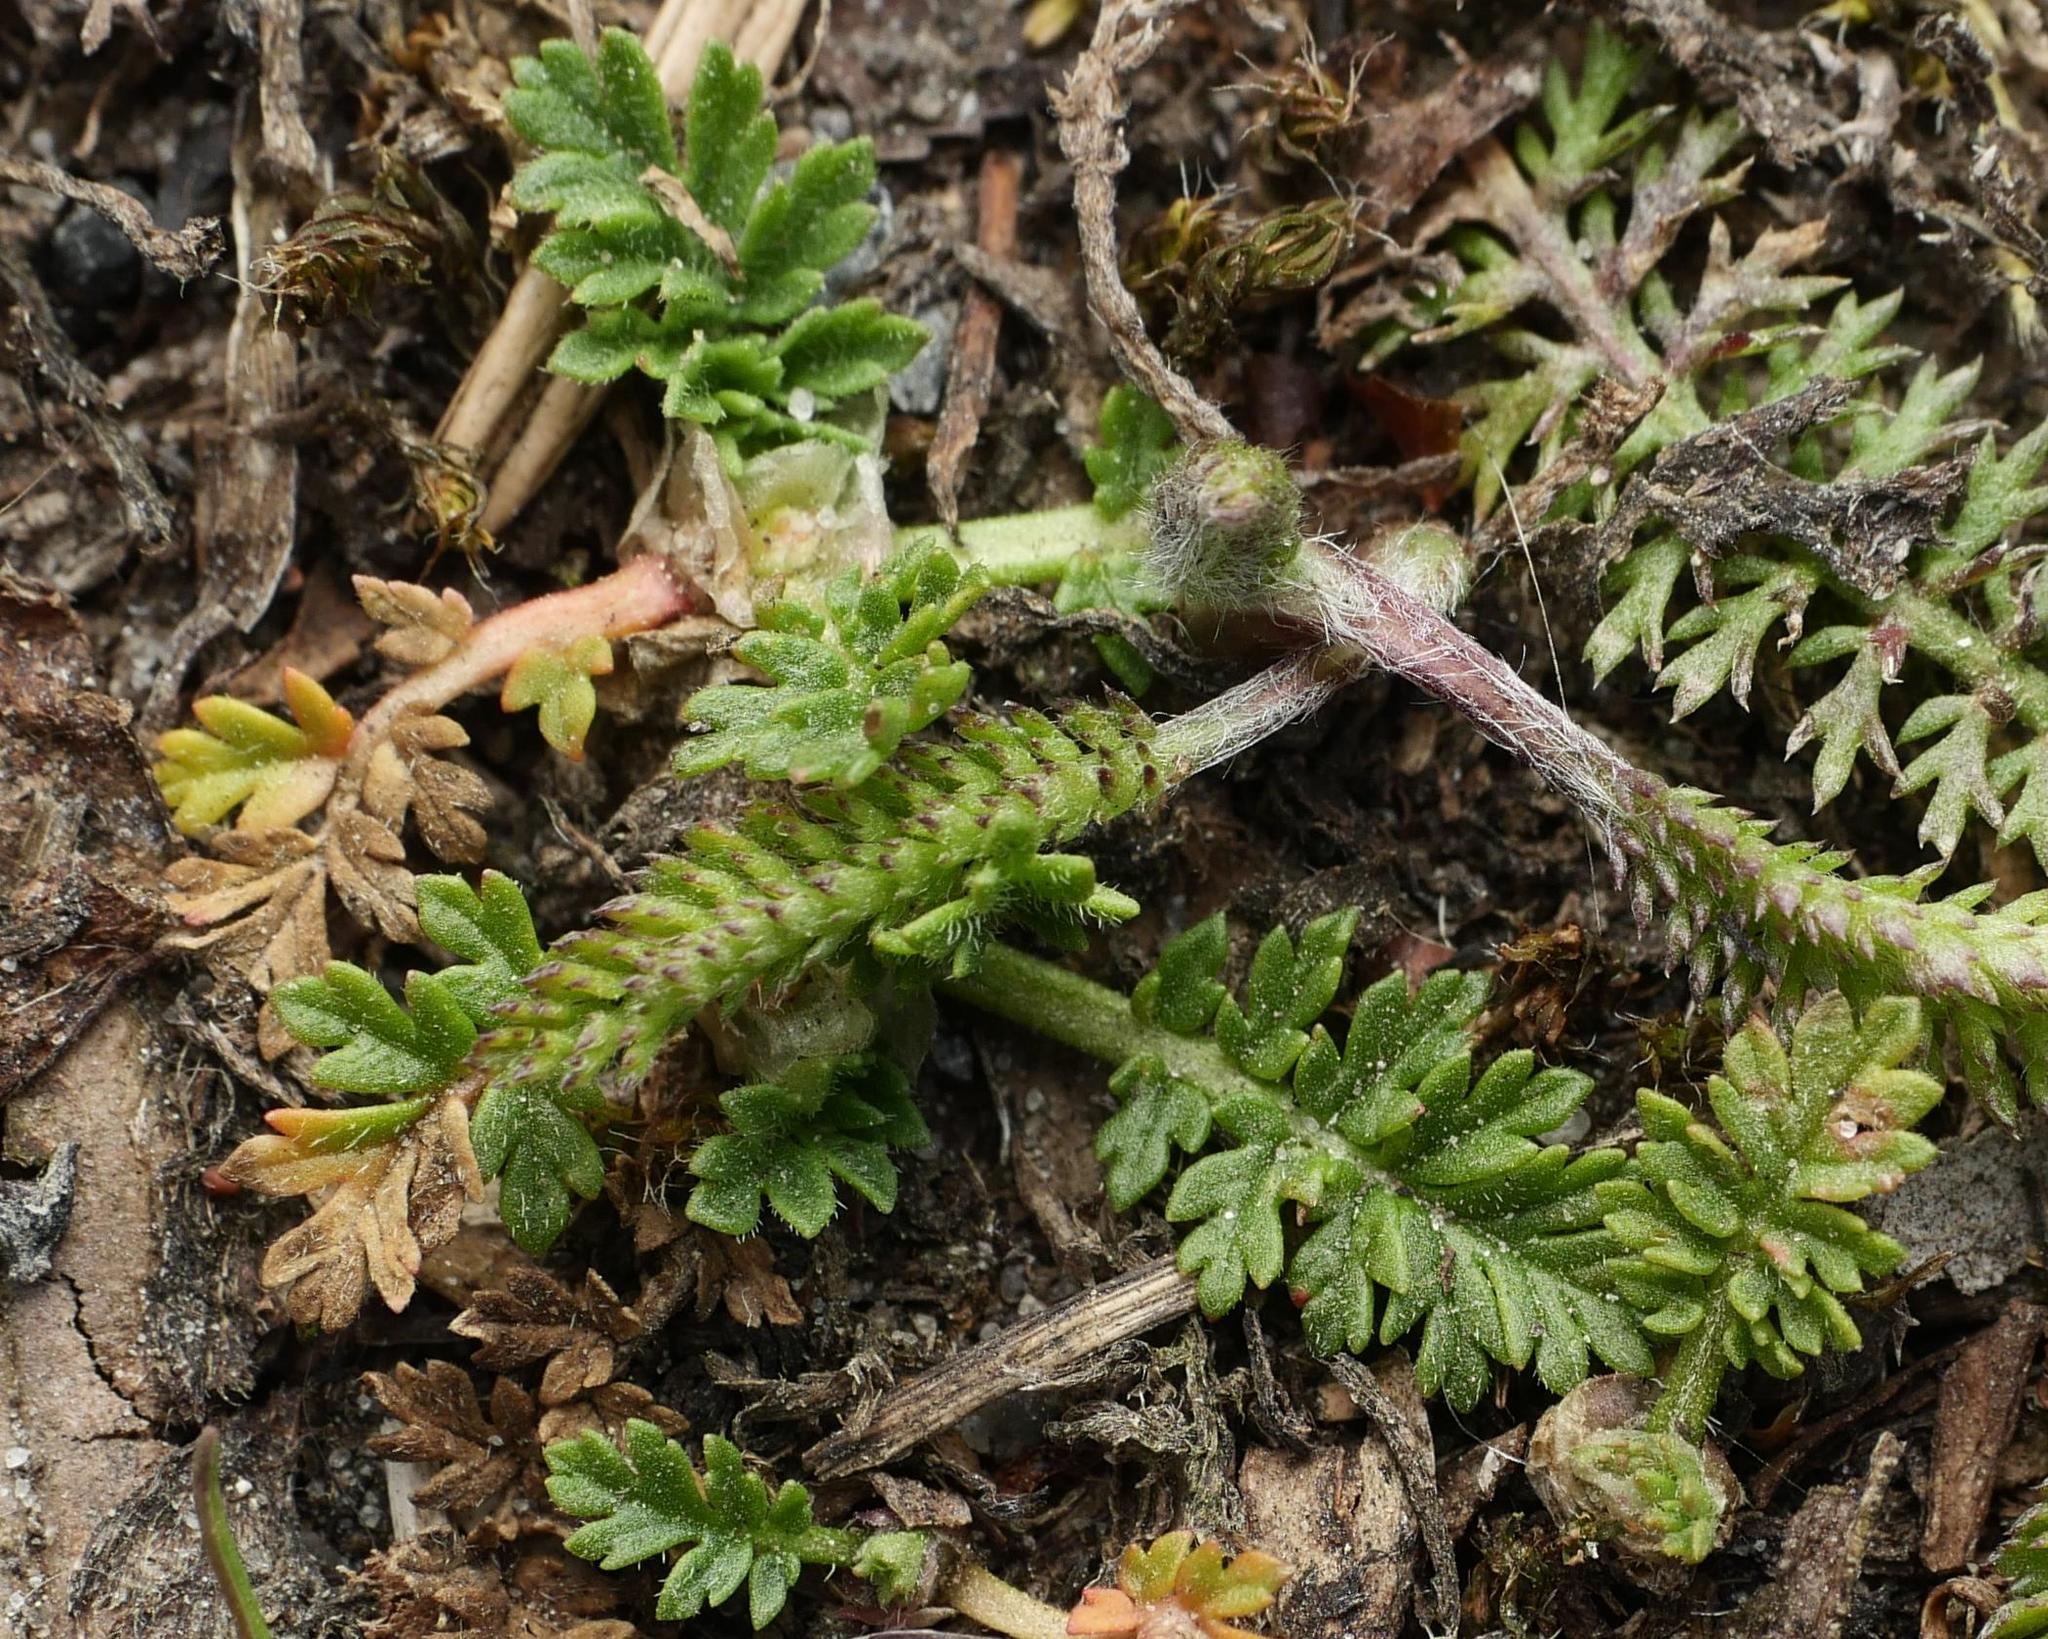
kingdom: Plantae
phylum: Tracheophyta
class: Magnoliopsida
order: Geraniales
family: Geraniaceae
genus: Erodium
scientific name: Erodium cicutarium
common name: Common stork's-bill
